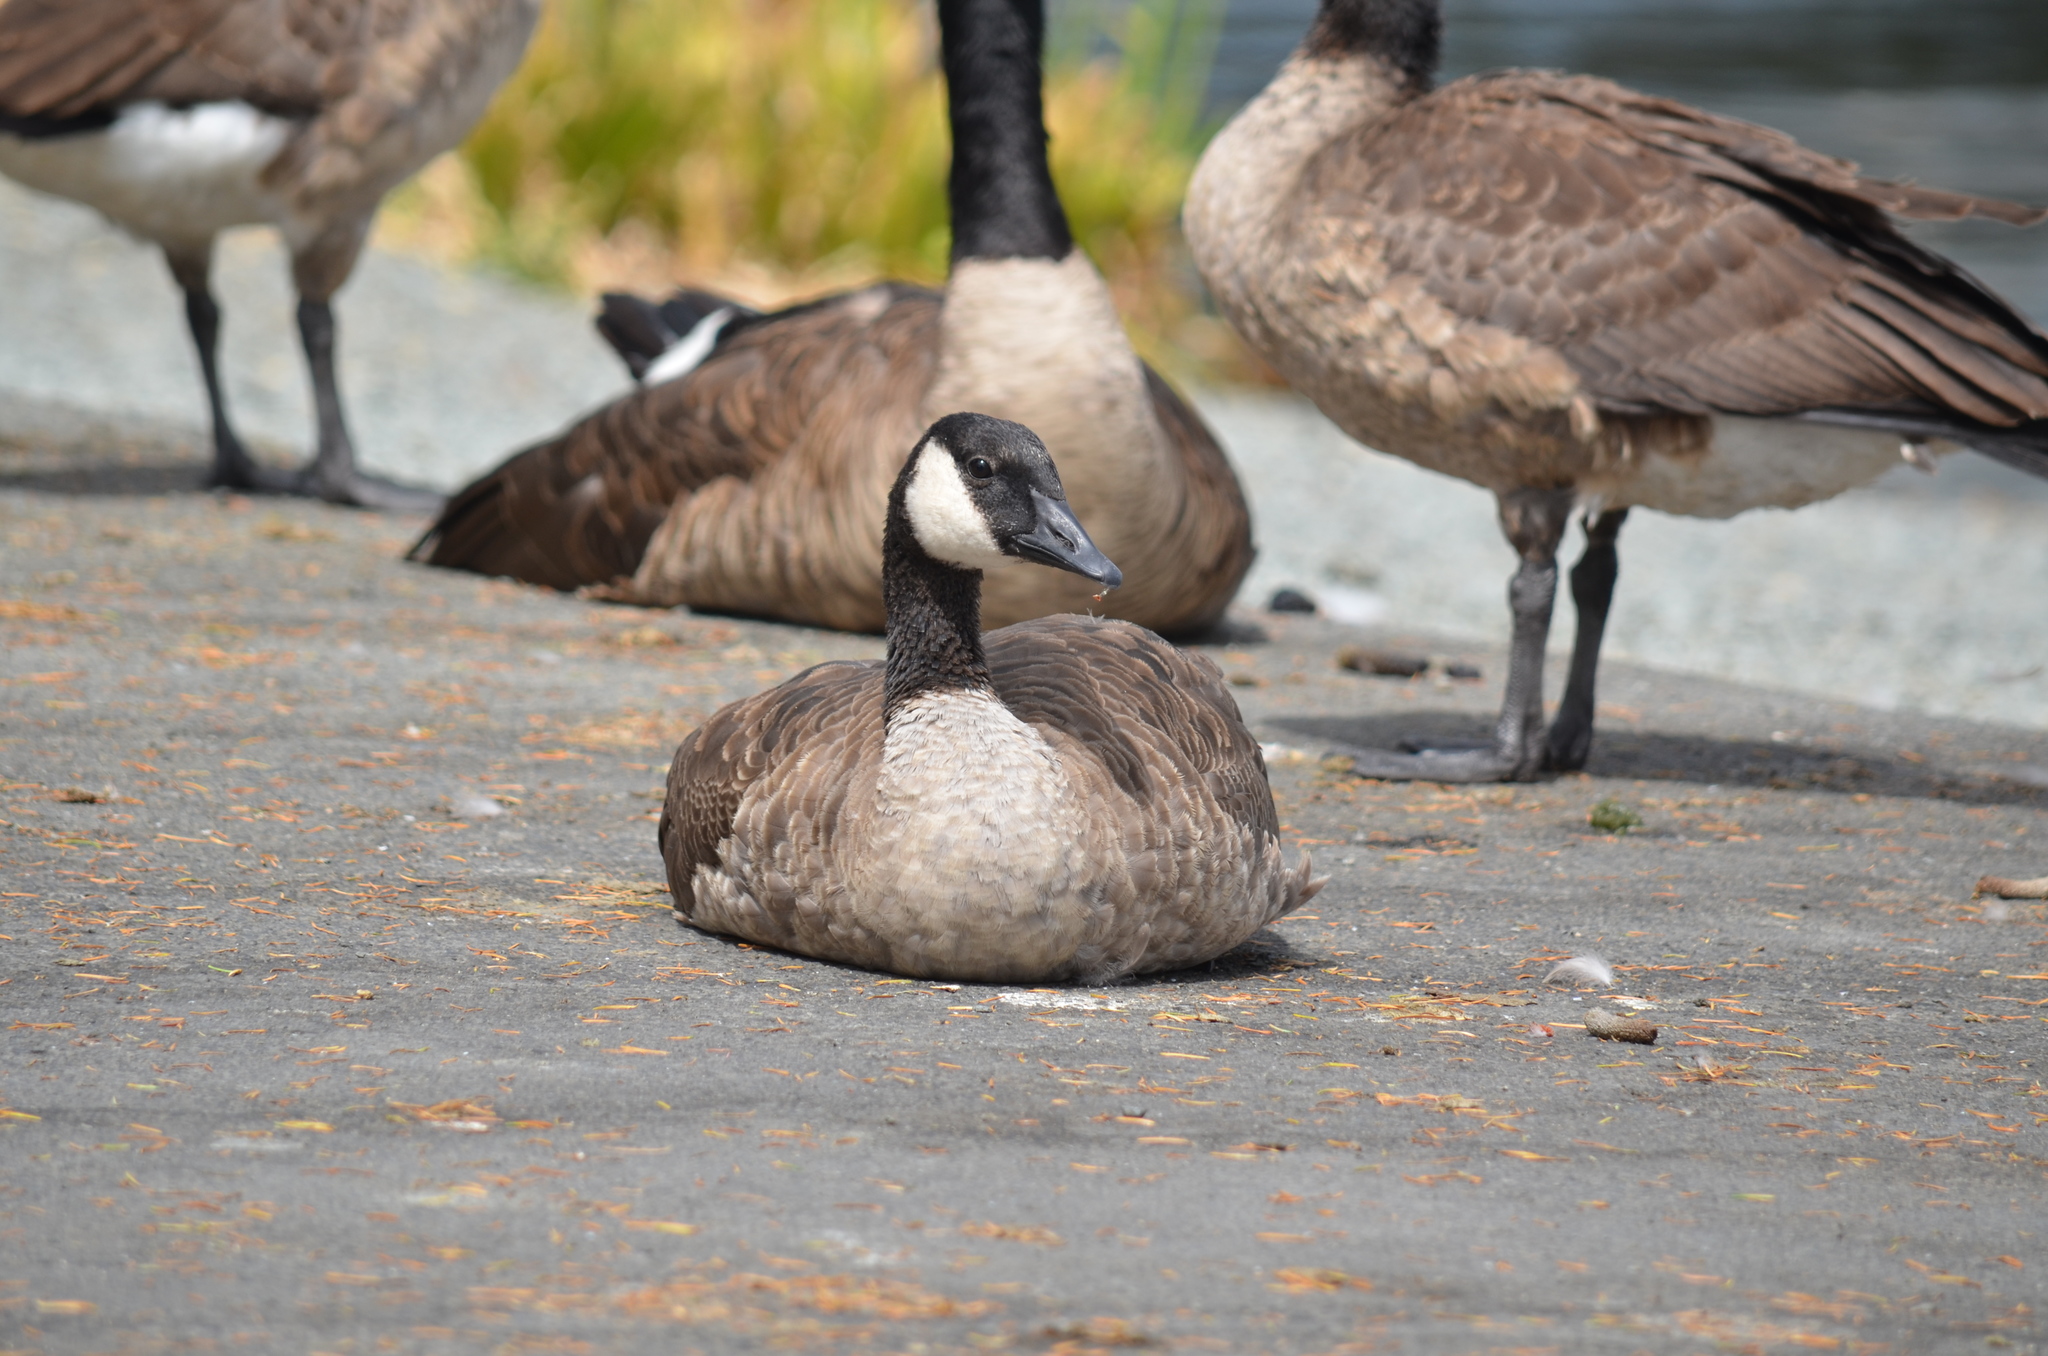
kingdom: Animalia
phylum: Chordata
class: Aves
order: Anseriformes
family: Anatidae
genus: Branta
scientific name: Branta canadensis
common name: Canada goose
